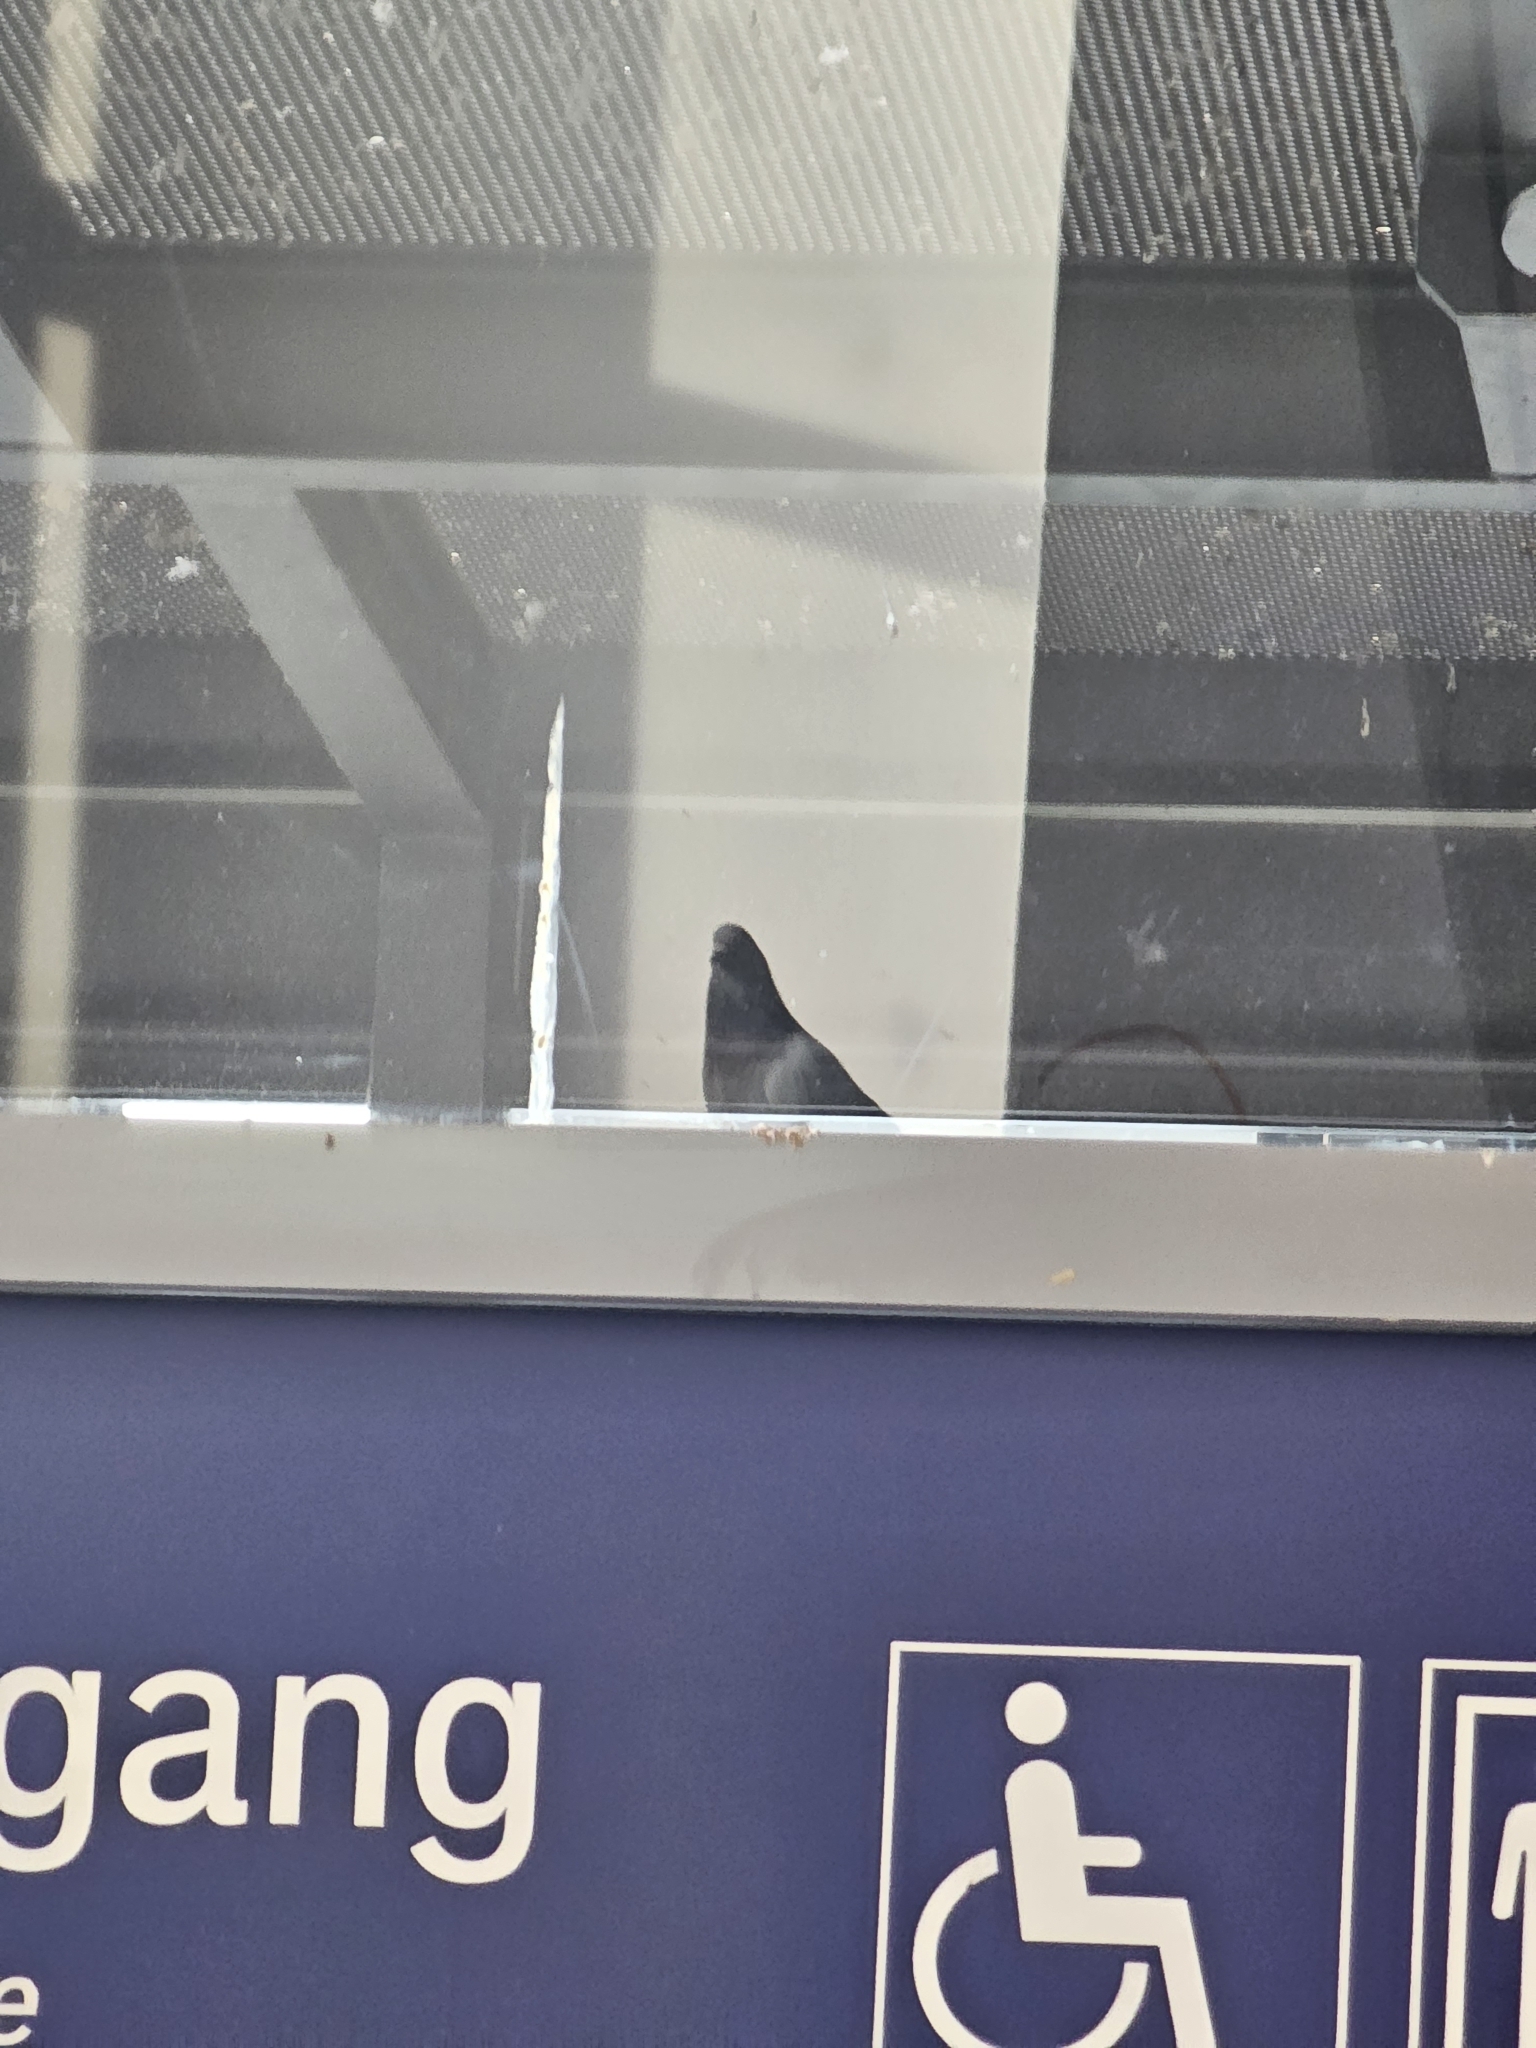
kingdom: Animalia
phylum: Chordata
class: Aves
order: Columbiformes
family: Columbidae
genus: Columba
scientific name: Columba livia
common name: Rock pigeon
